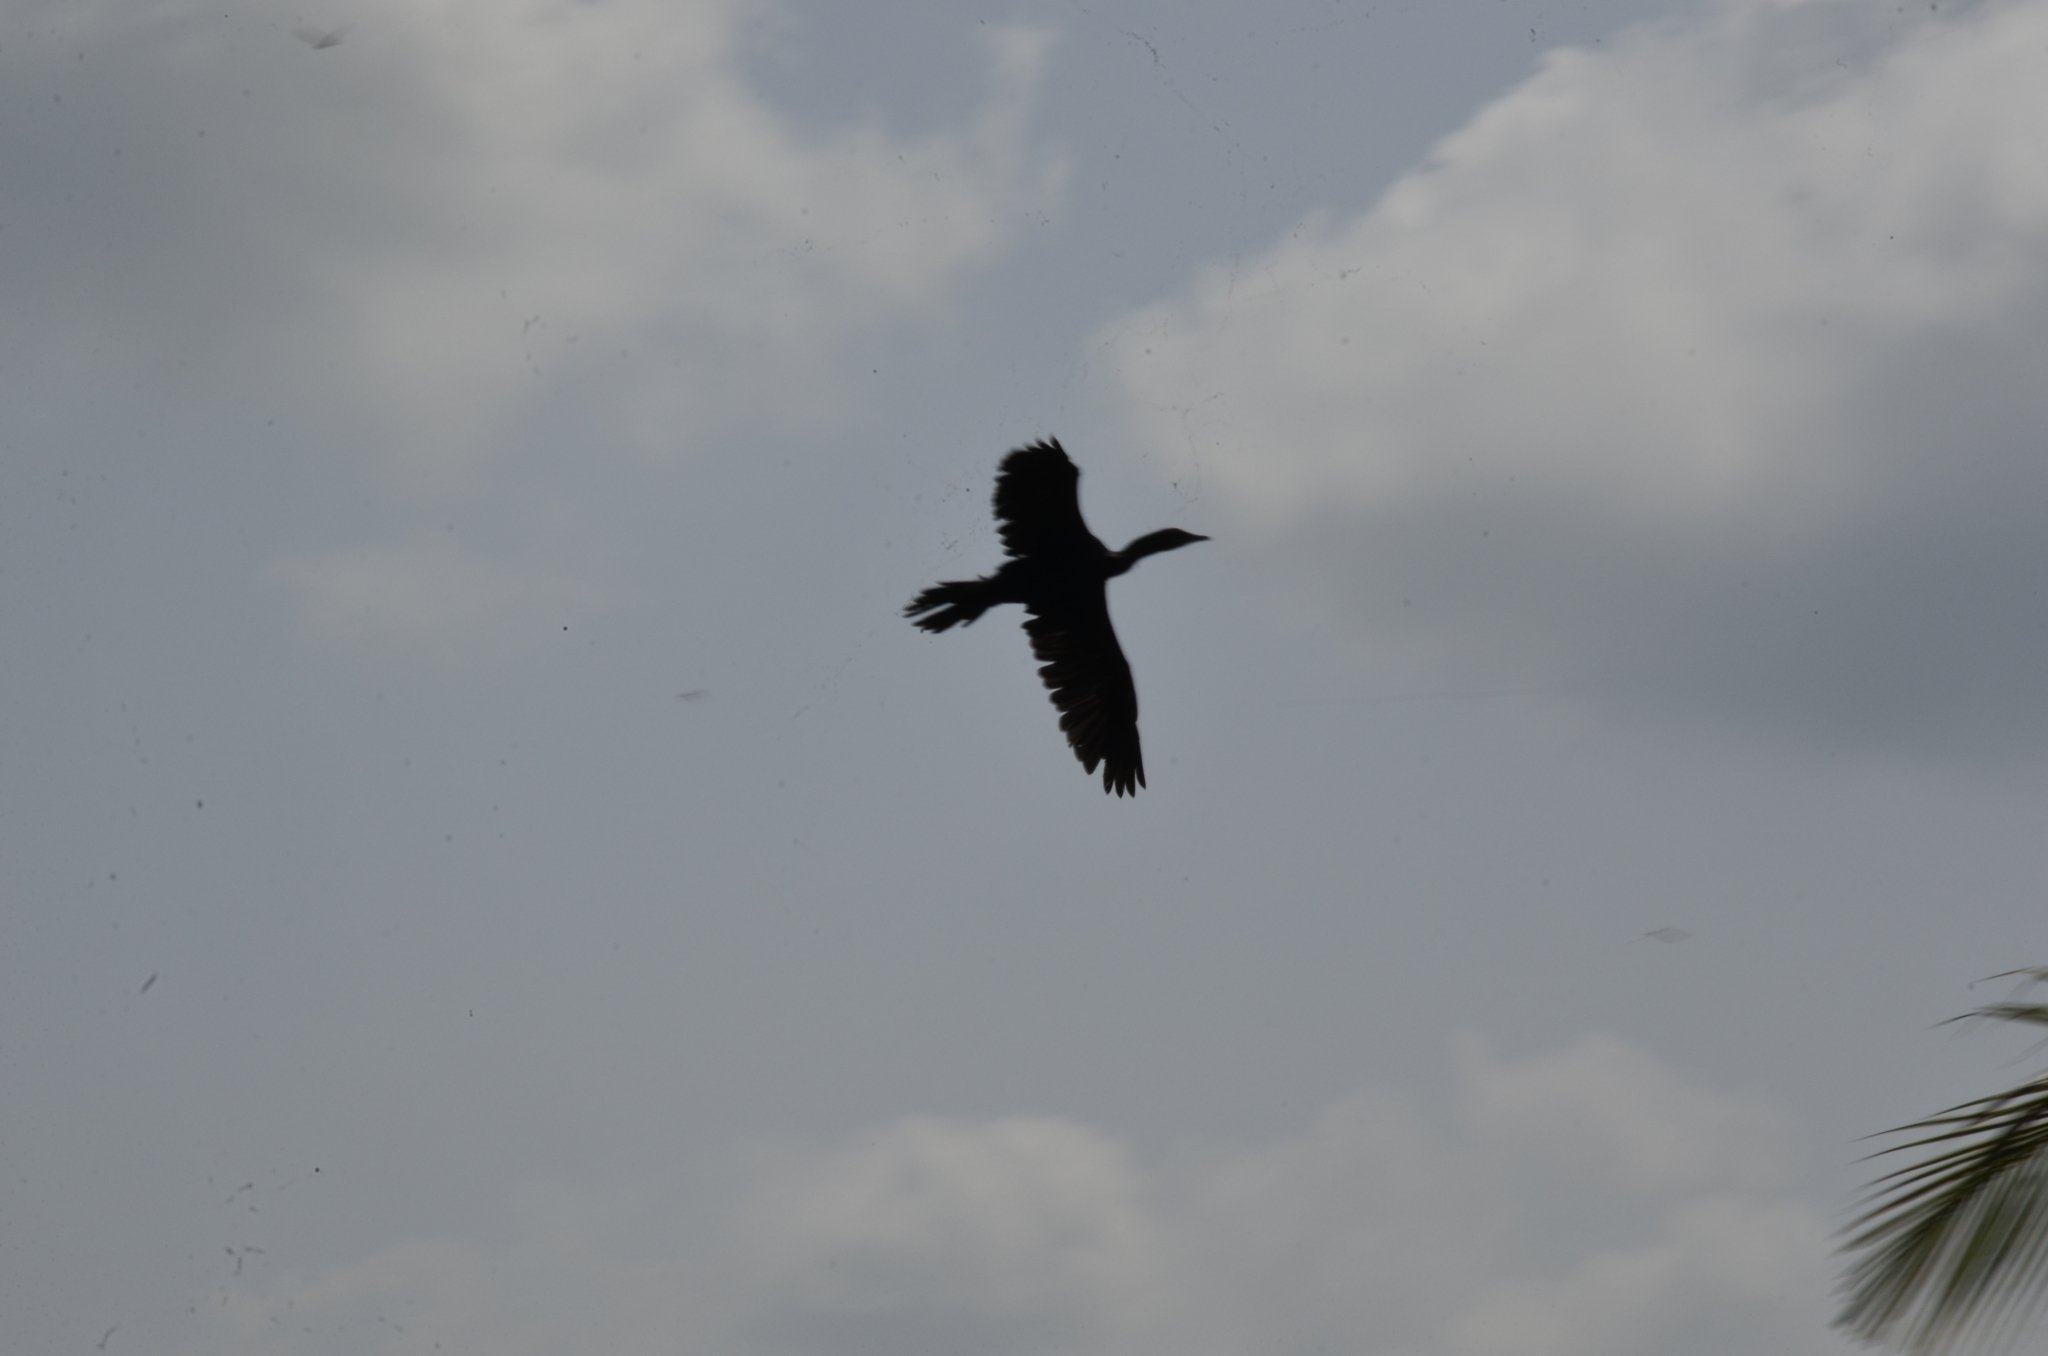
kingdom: Animalia
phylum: Chordata
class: Aves
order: Suliformes
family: Phalacrocoracidae
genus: Microcarbo
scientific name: Microcarbo niger
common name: Little cormorant
